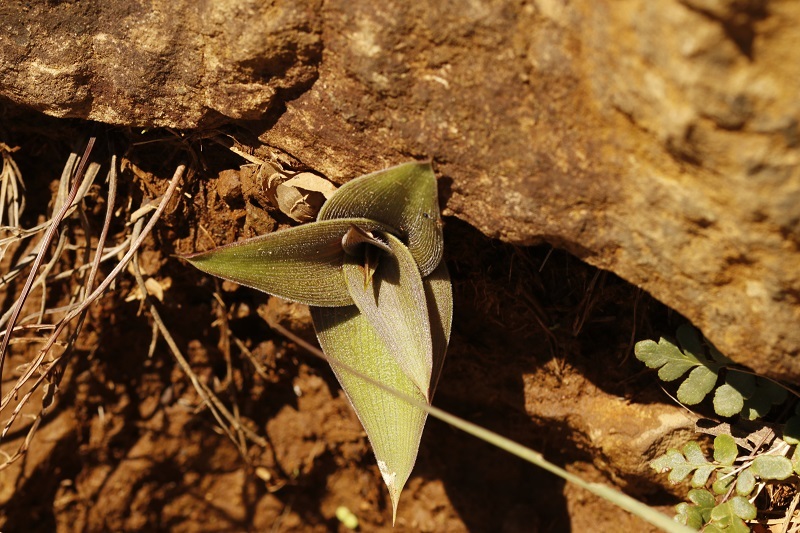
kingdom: Plantae
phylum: Tracheophyta
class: Liliopsida
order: Asparagales
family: Asparagaceae
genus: Merwilla
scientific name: Merwilla plumbea
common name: Blue-squill
